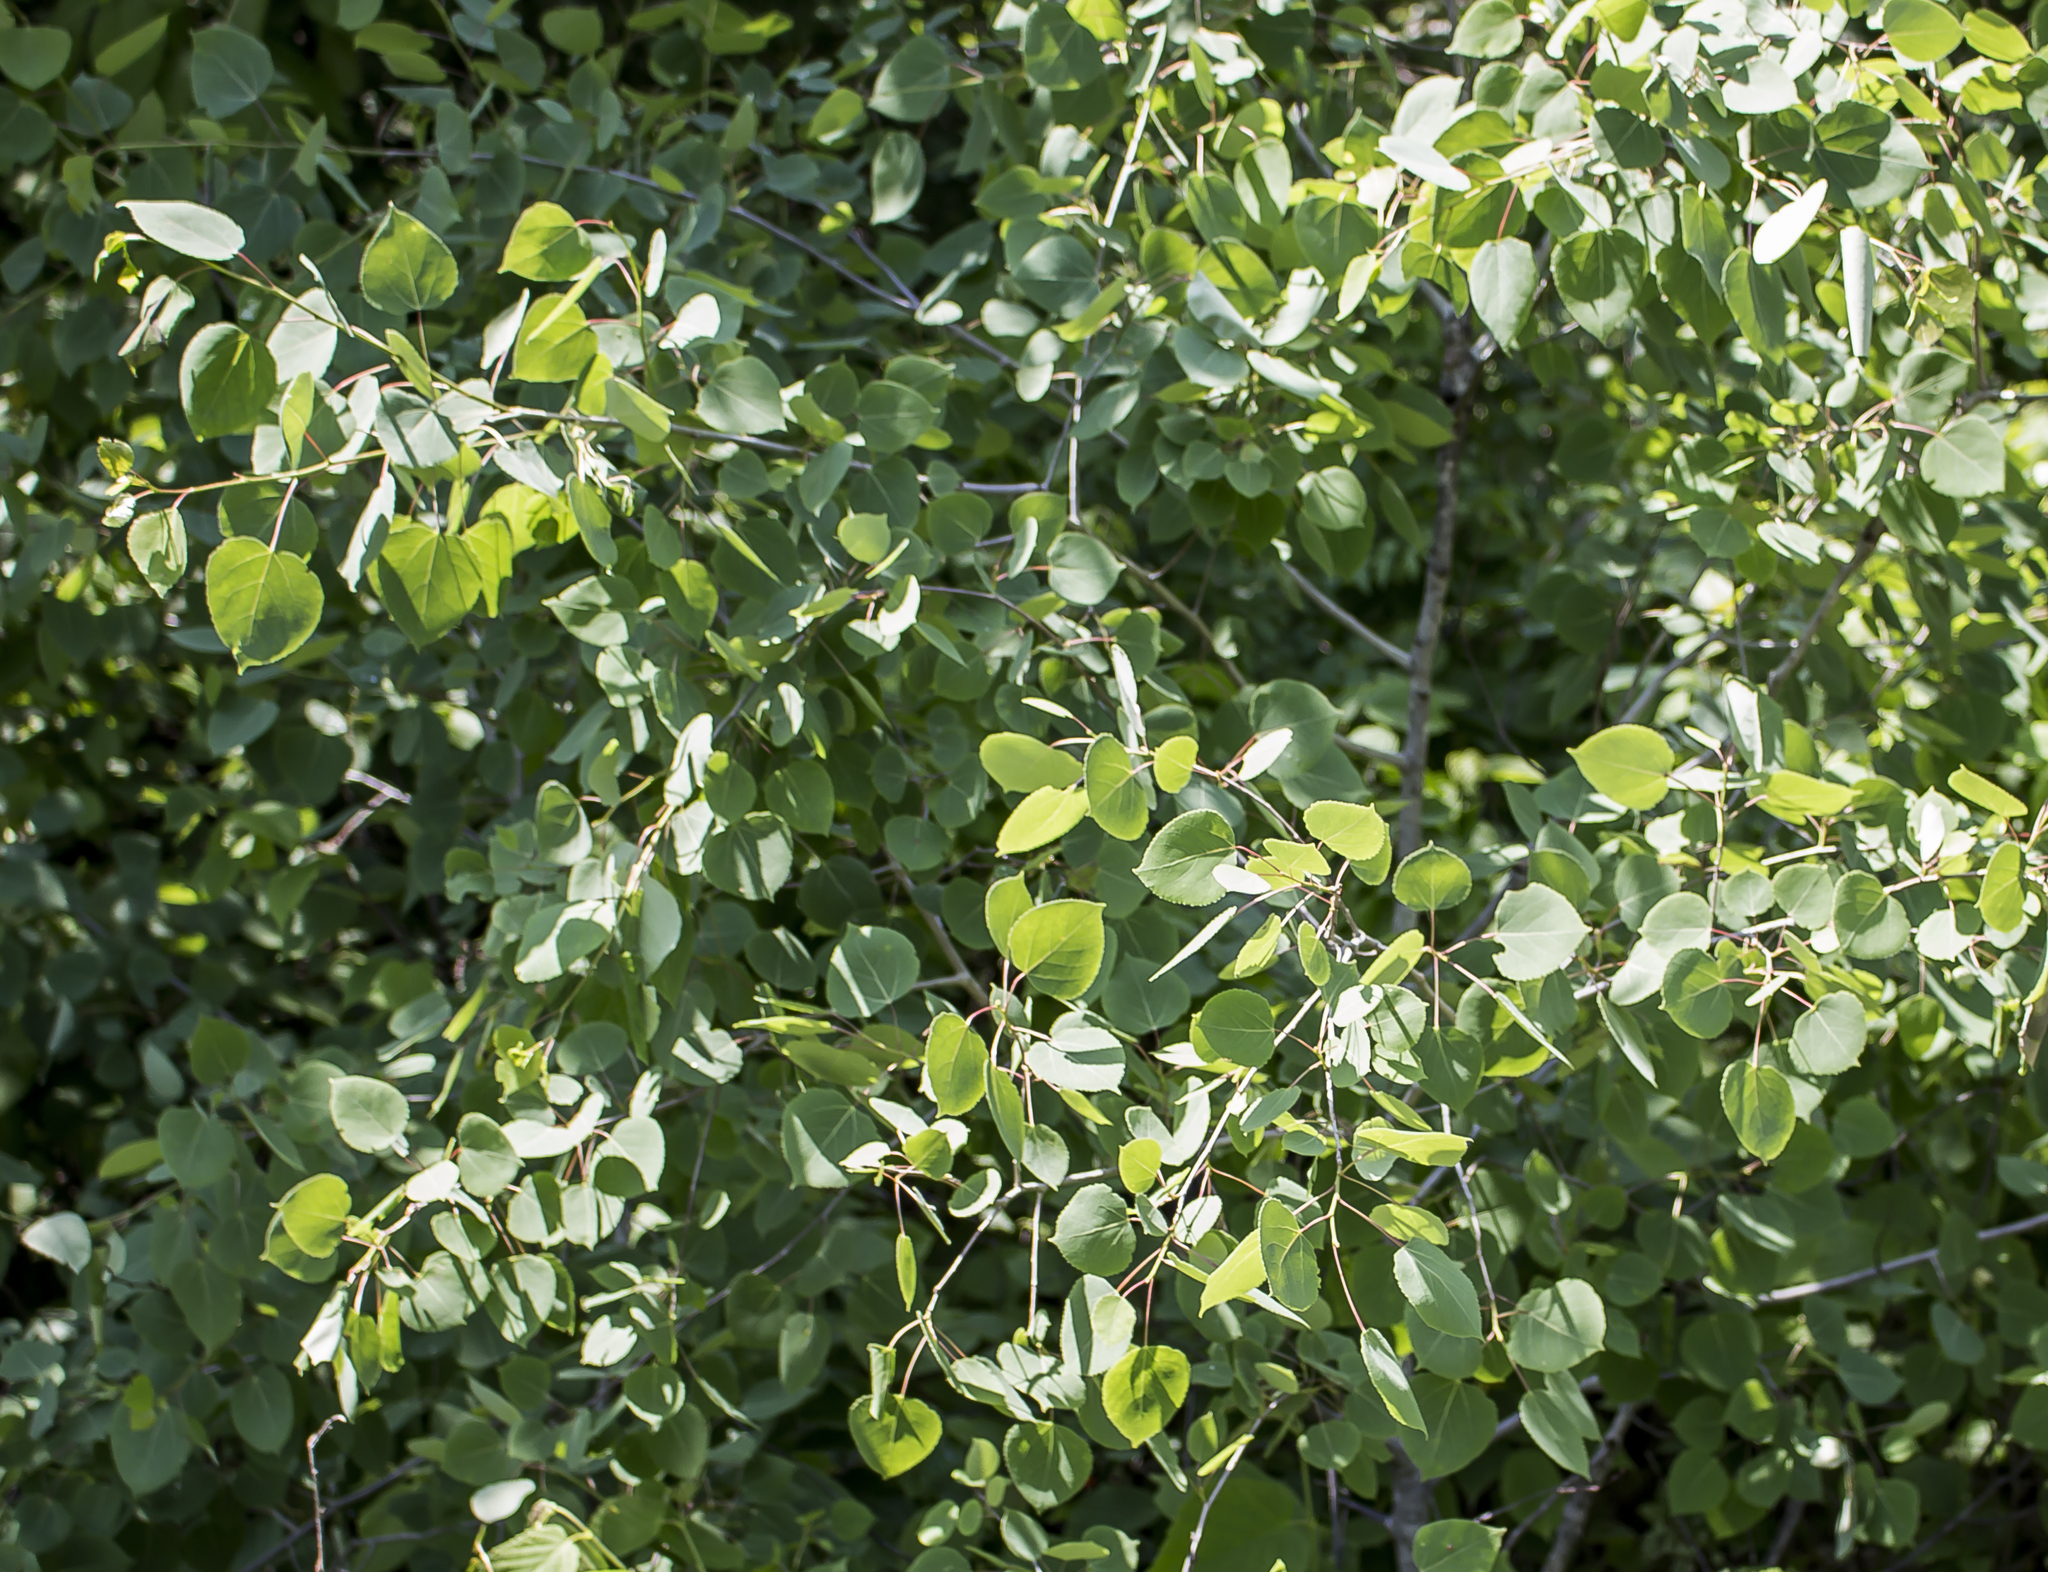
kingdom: Plantae
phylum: Tracheophyta
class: Magnoliopsida
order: Malpighiales
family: Salicaceae
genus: Populus
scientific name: Populus tremuloides
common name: Quaking aspen
